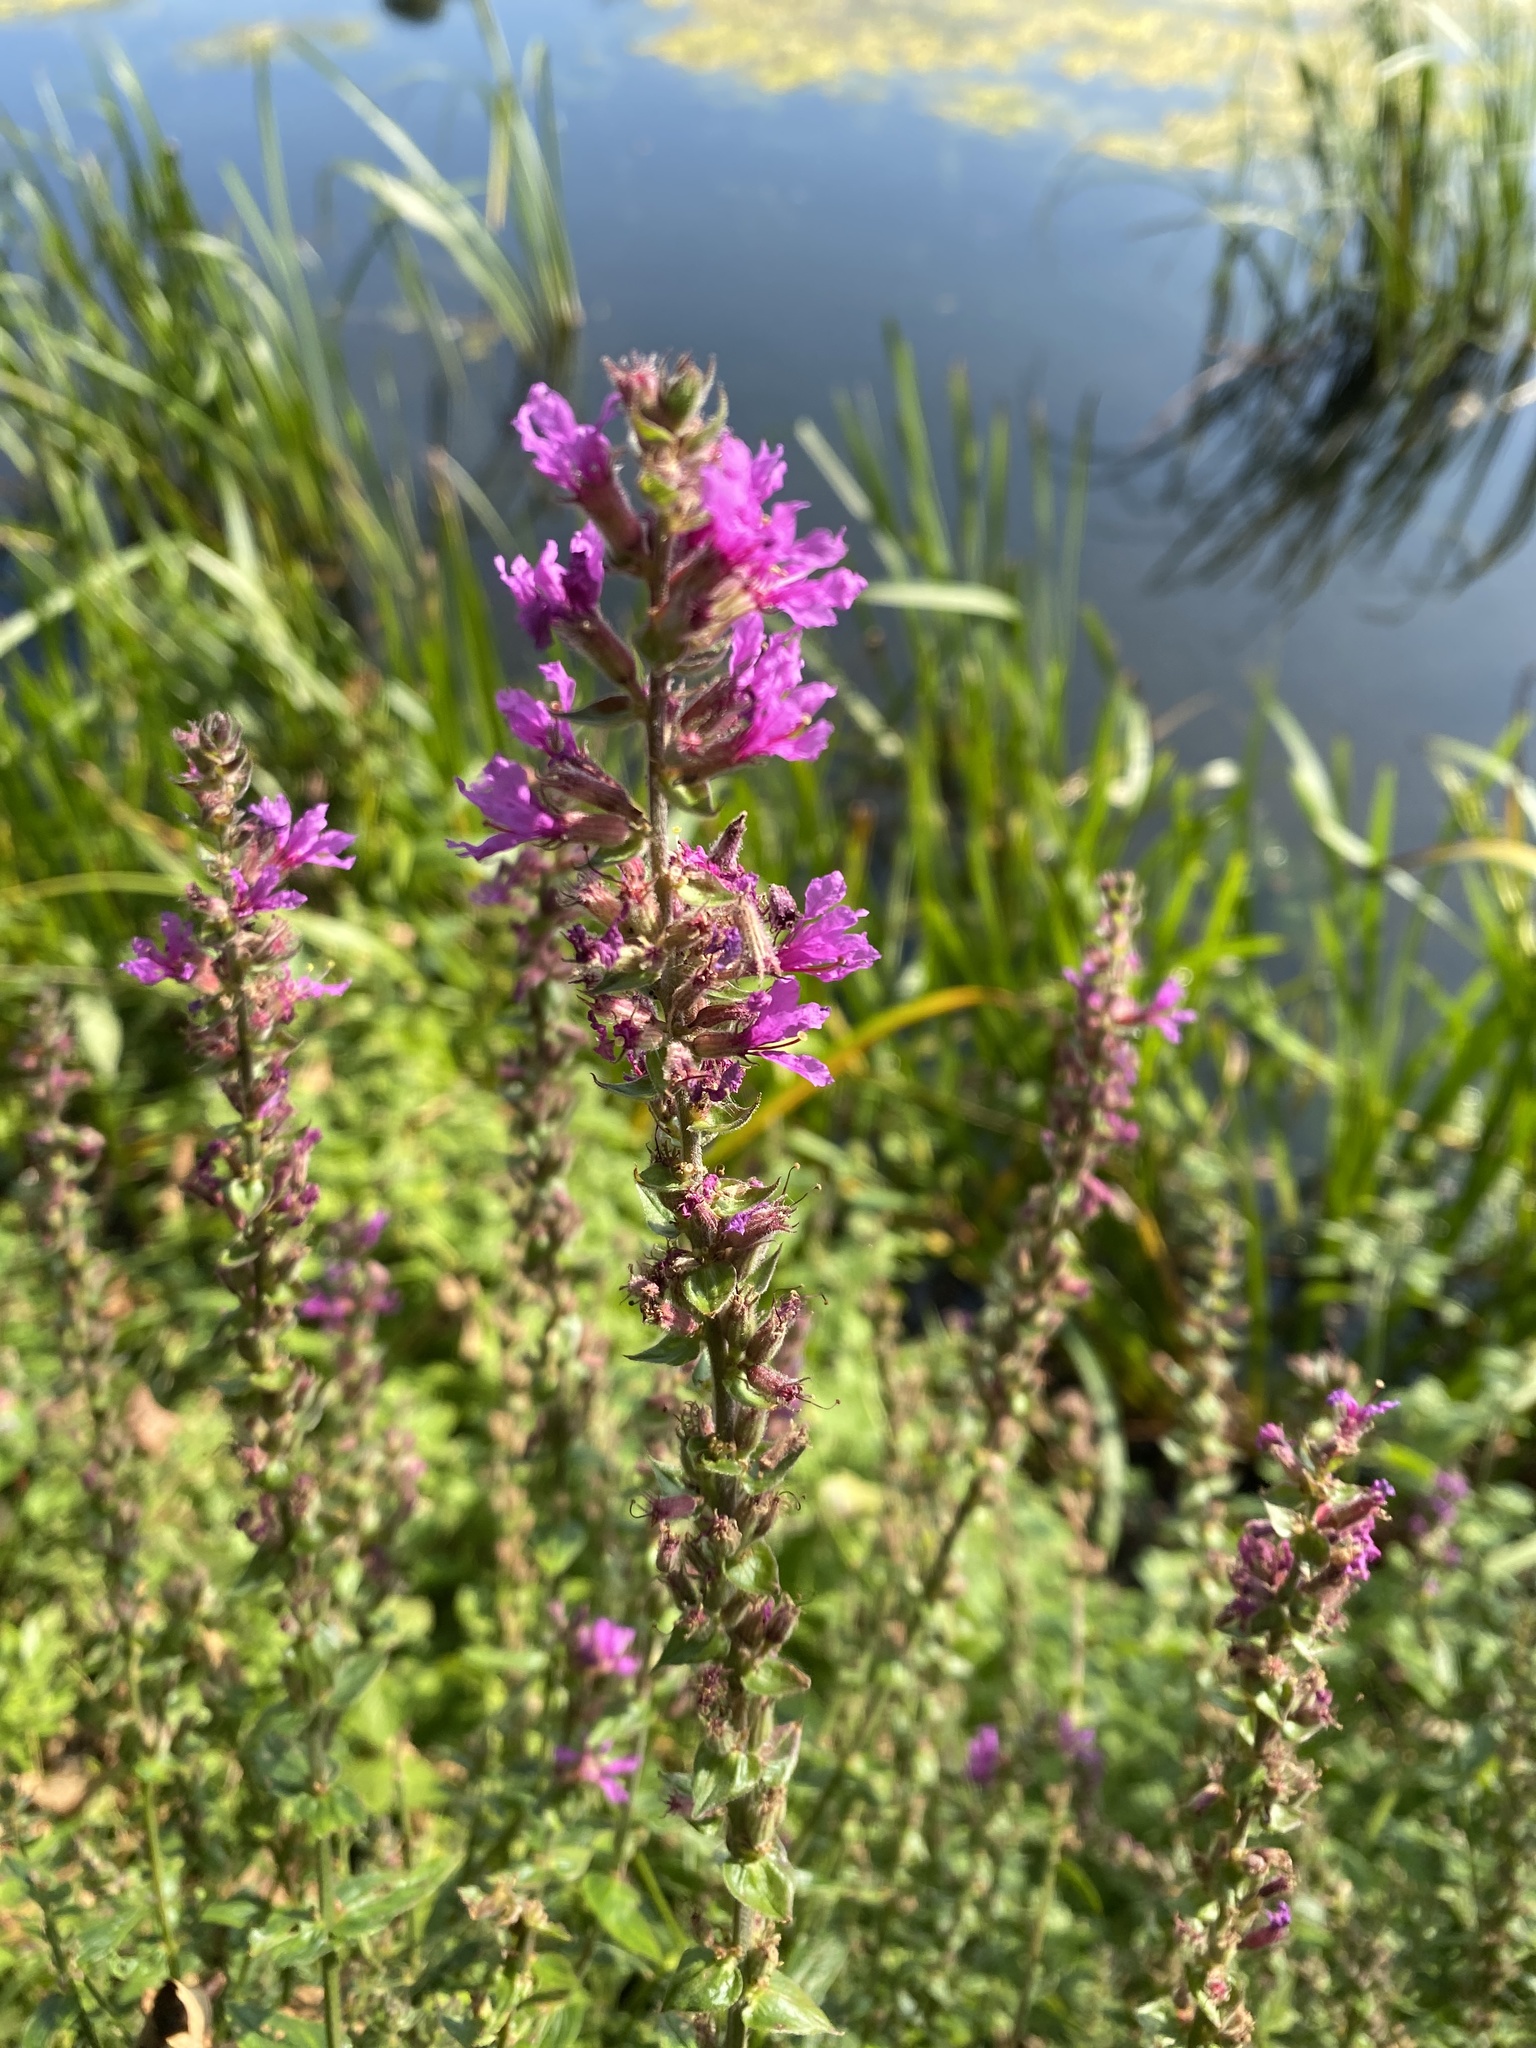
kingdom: Plantae
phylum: Tracheophyta
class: Magnoliopsida
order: Myrtales
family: Lythraceae
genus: Lythrum
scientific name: Lythrum salicaria
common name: Purple loosestrife
